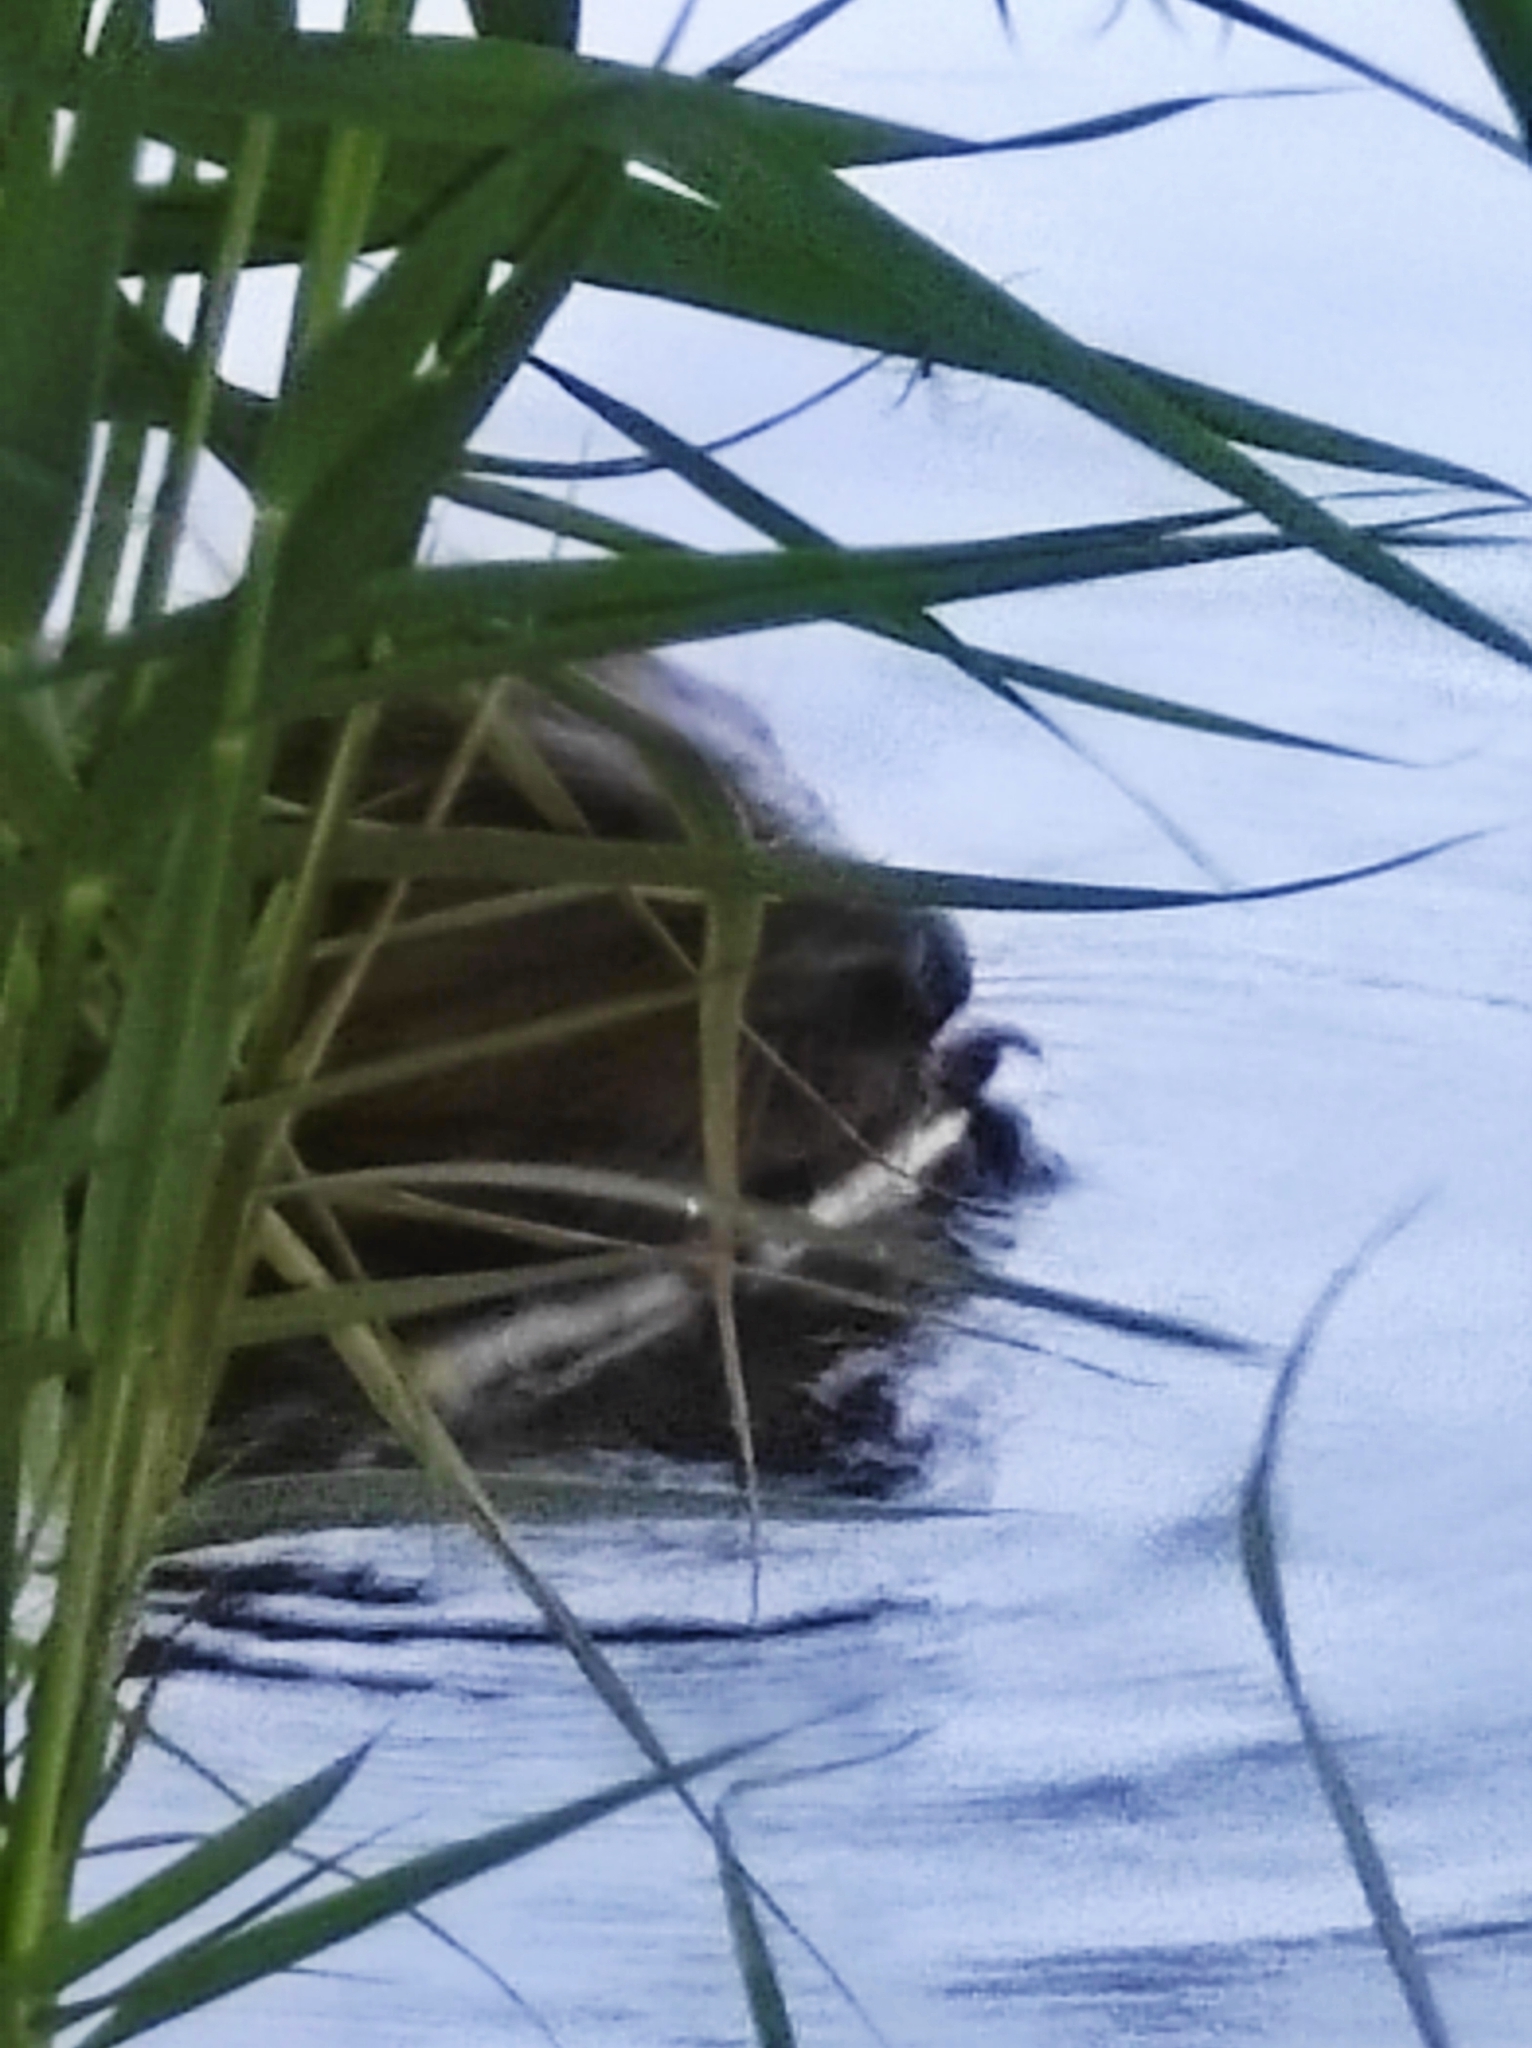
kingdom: Animalia
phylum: Chordata
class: Mammalia
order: Rodentia
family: Castoridae
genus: Castor
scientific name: Castor fiber
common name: Eurasian beaver
